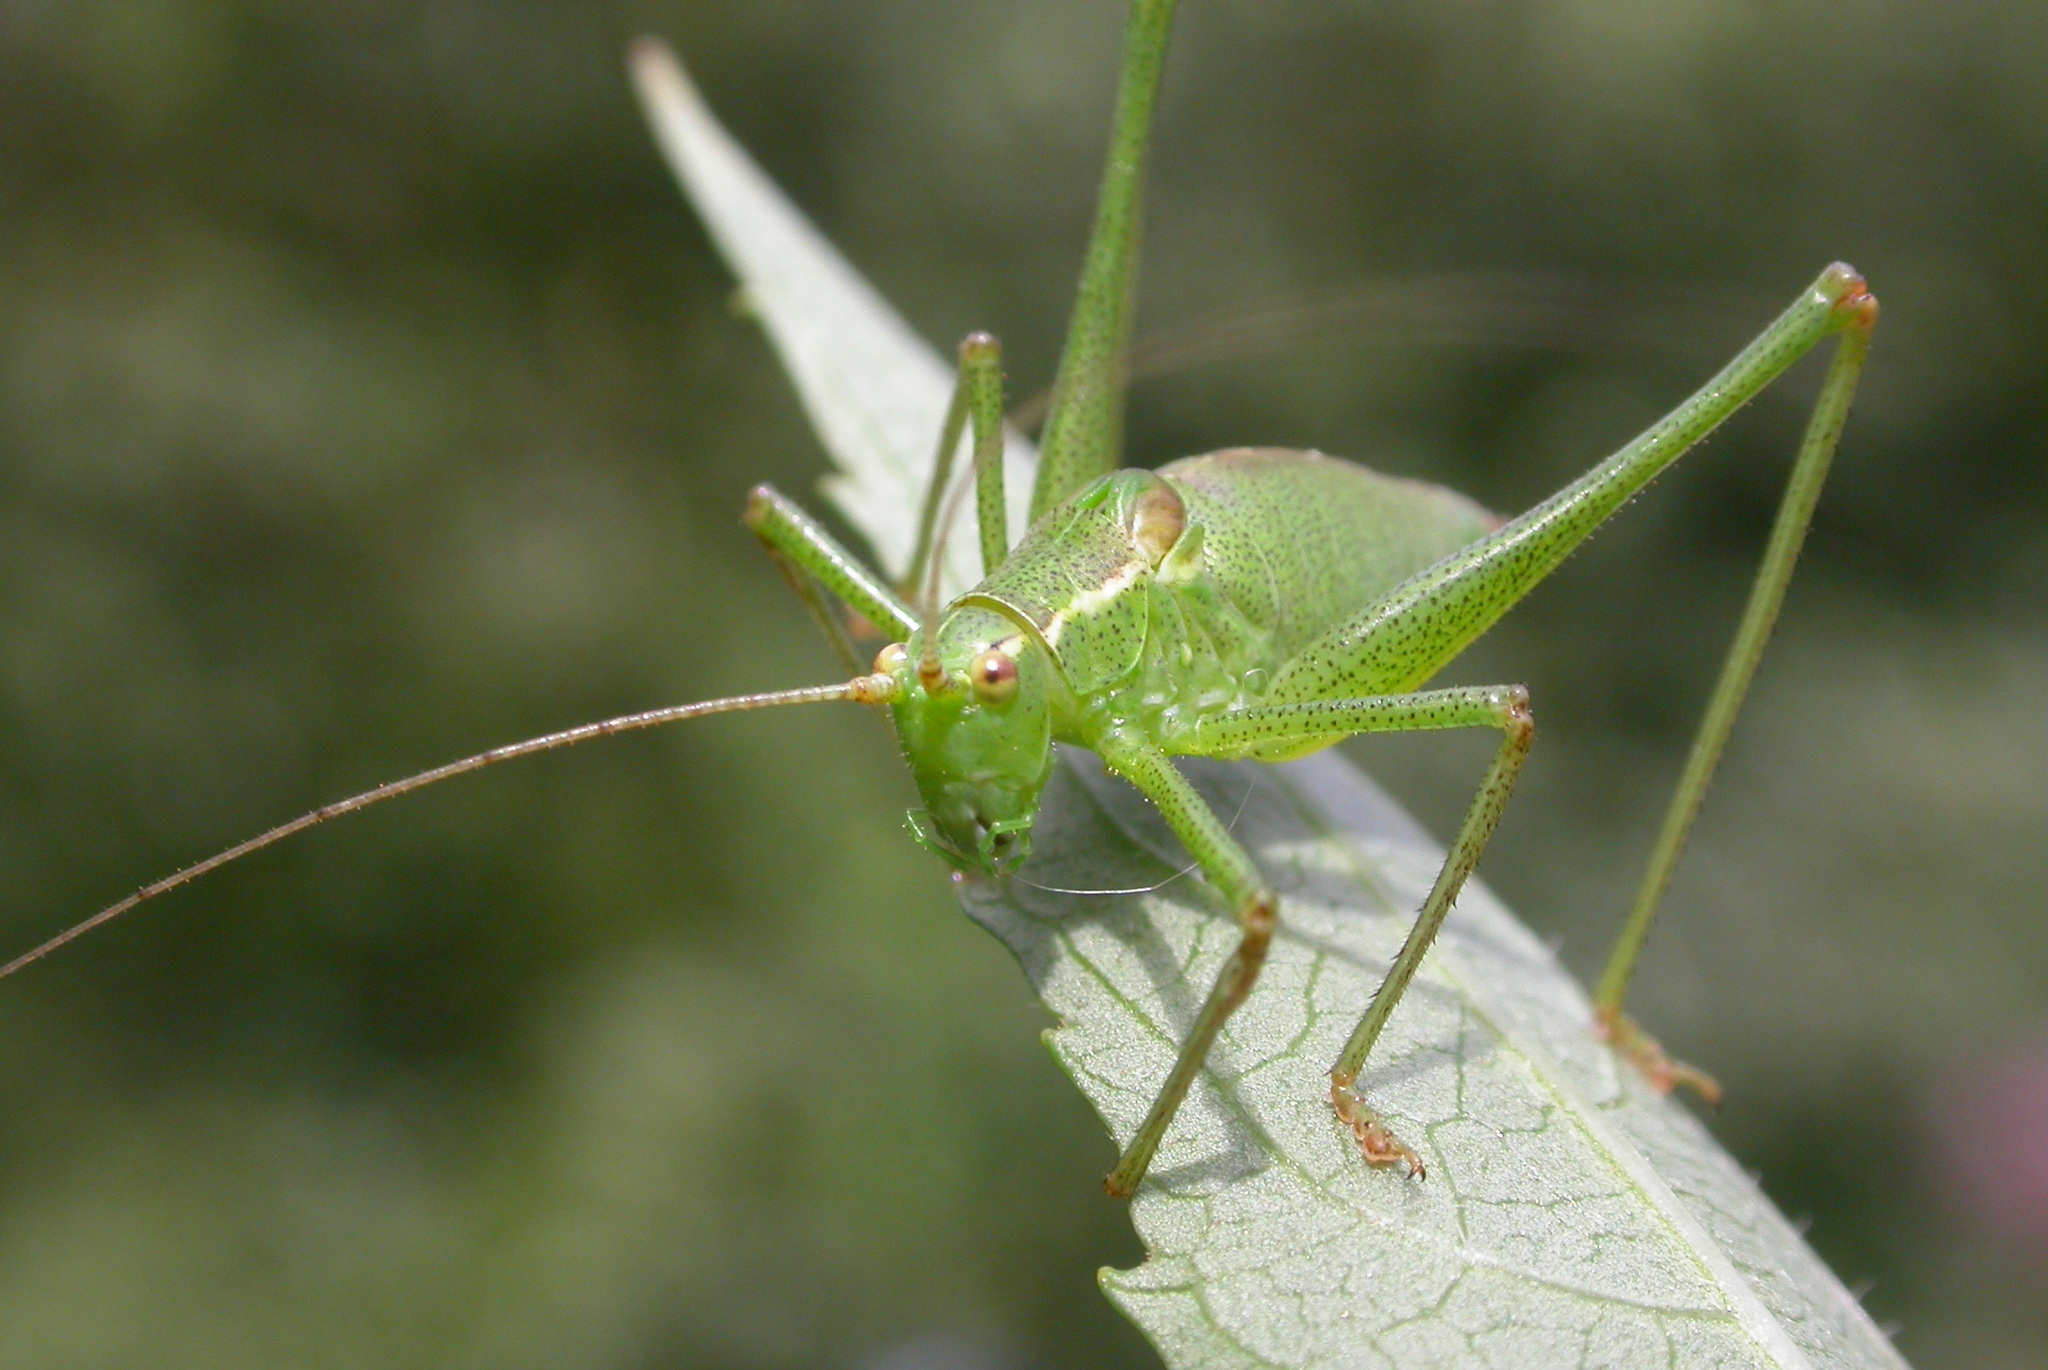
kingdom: Animalia
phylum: Arthropoda
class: Insecta
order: Orthoptera
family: Tettigoniidae
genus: Leptophyes
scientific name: Leptophyes punctatissima
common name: Speckled bush-cricket
